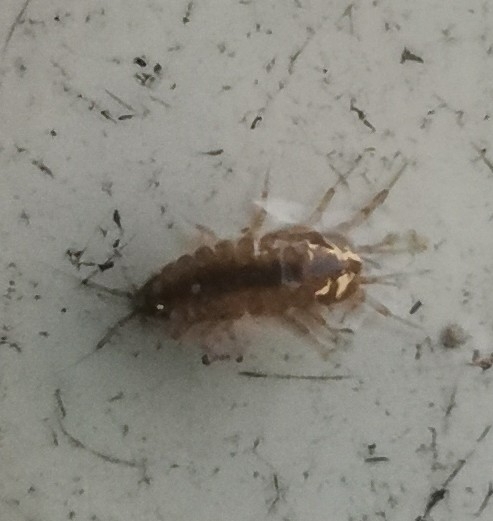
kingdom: Animalia
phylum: Arthropoda
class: Malacostraca
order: Isopoda
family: Asellidae
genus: Asellus
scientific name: Asellus aquaticus
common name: Water hog lice/slaters
